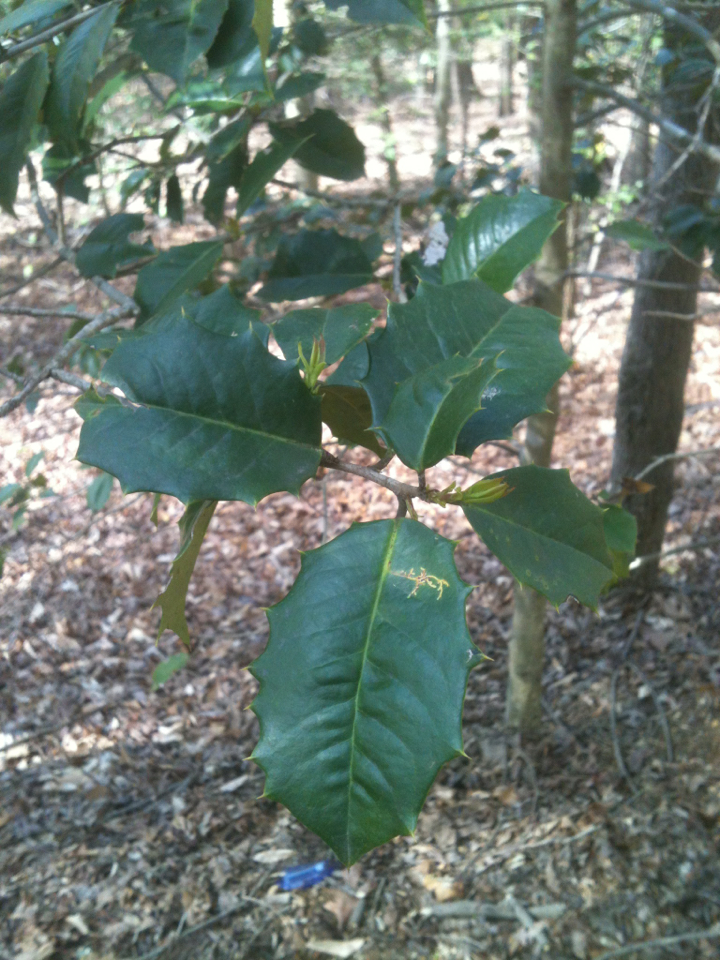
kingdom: Plantae
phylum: Tracheophyta
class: Magnoliopsida
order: Aquifoliales
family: Aquifoliaceae
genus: Ilex
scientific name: Ilex opaca
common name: American holly
